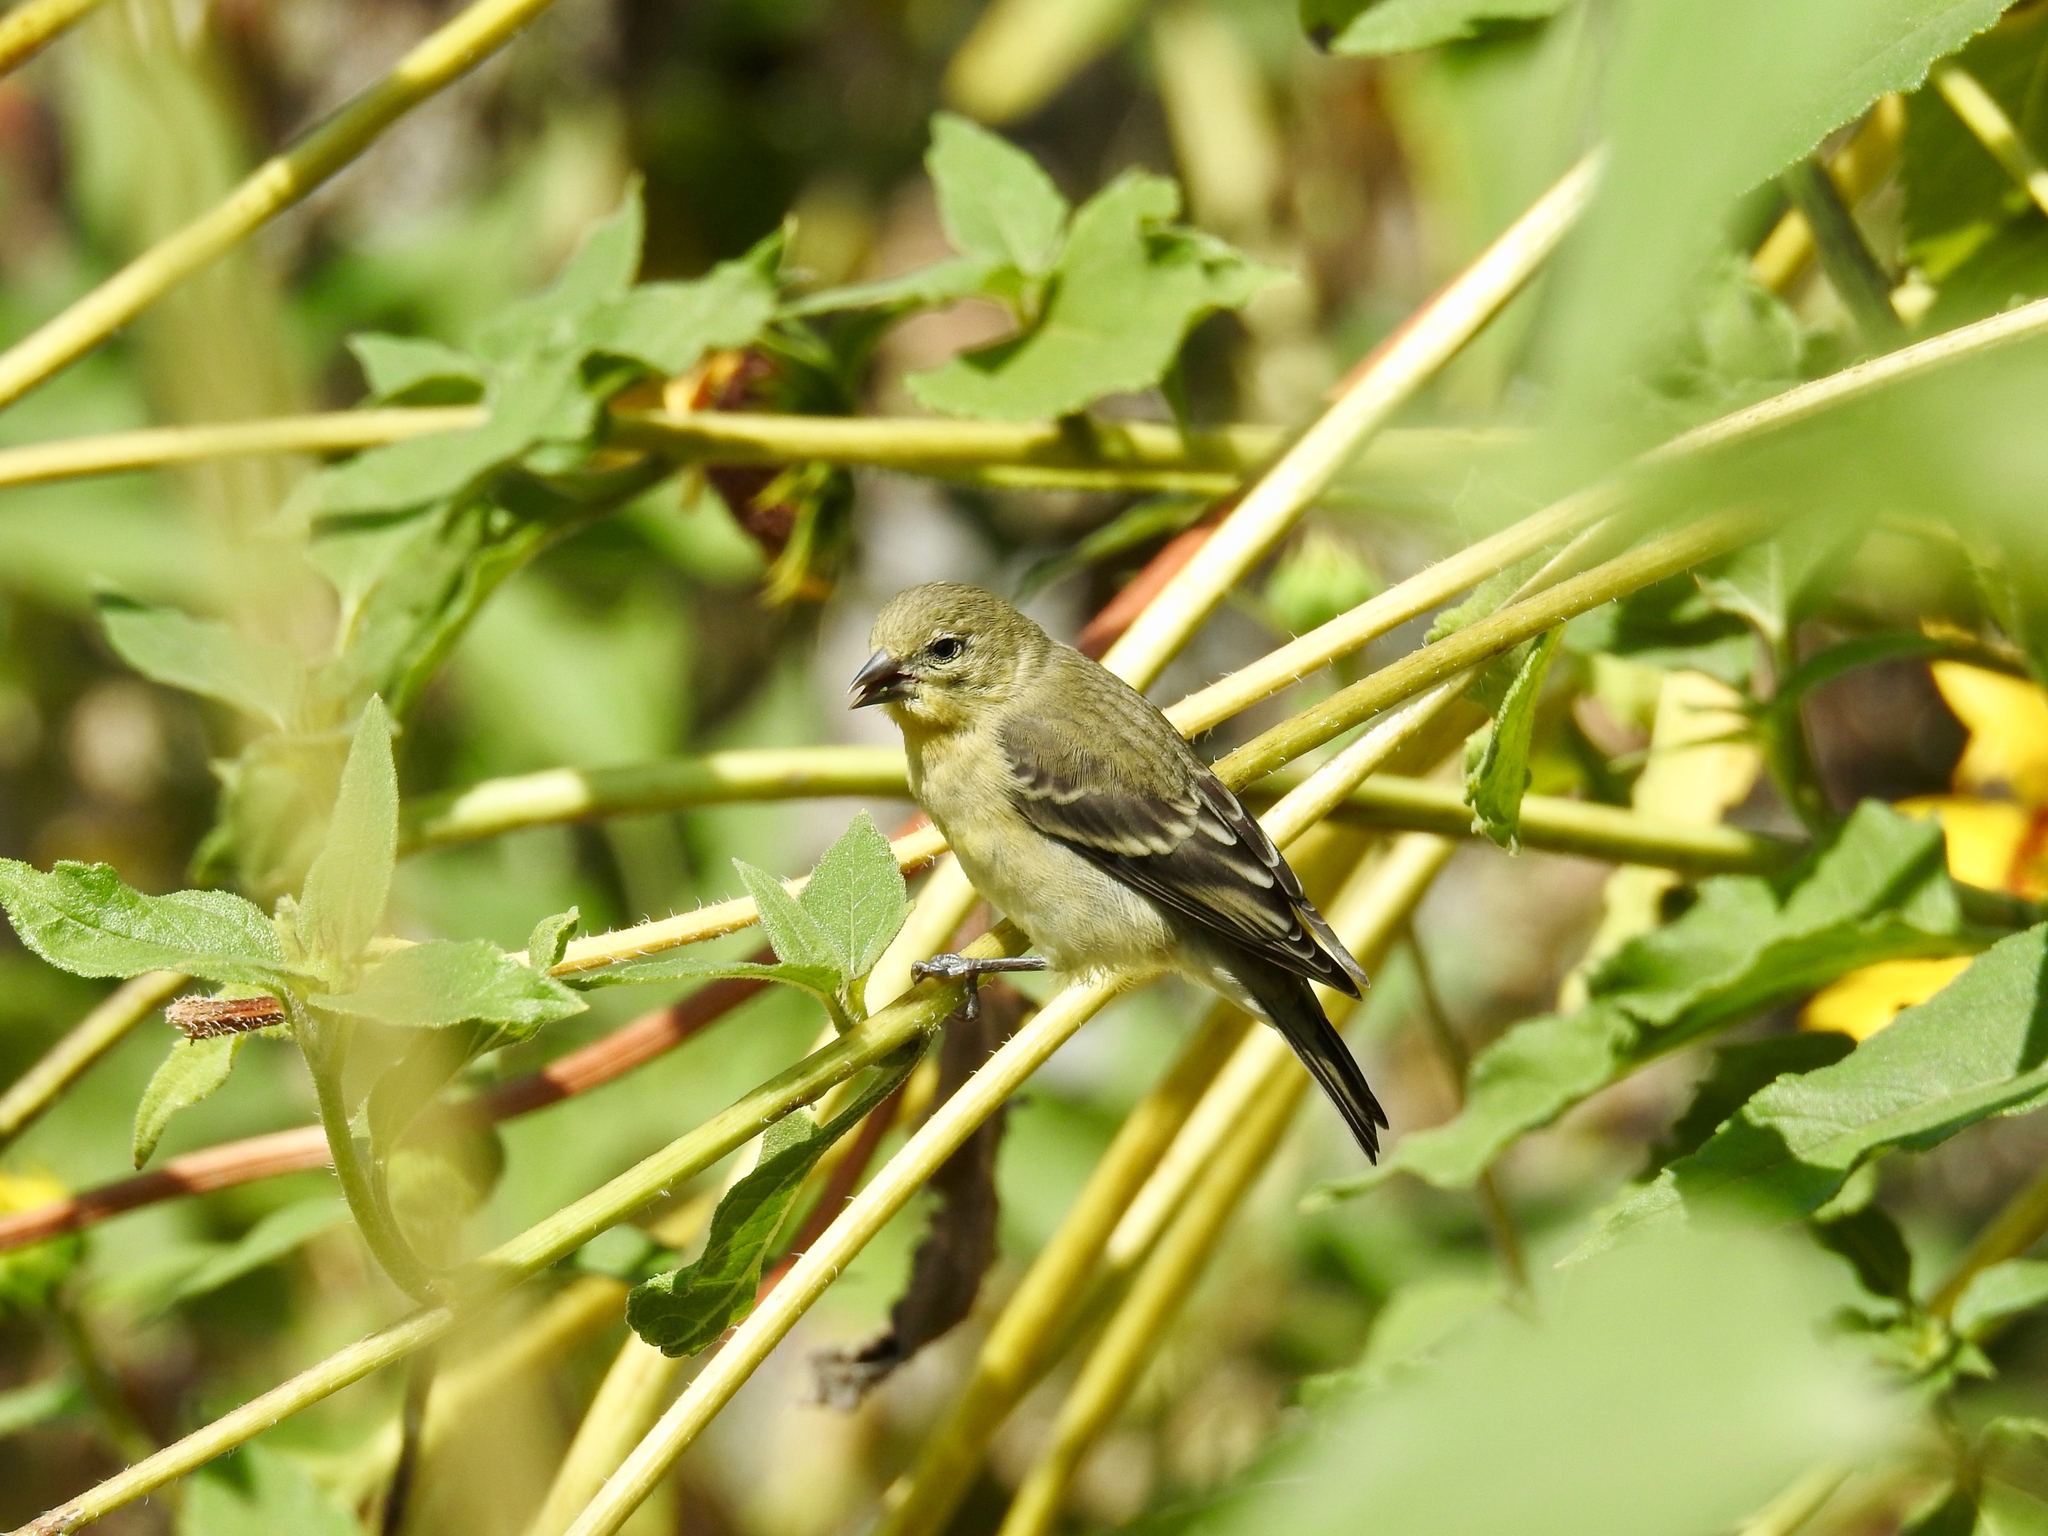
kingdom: Animalia
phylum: Chordata
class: Aves
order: Passeriformes
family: Fringillidae
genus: Spinus
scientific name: Spinus psaltria
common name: Lesser goldfinch
